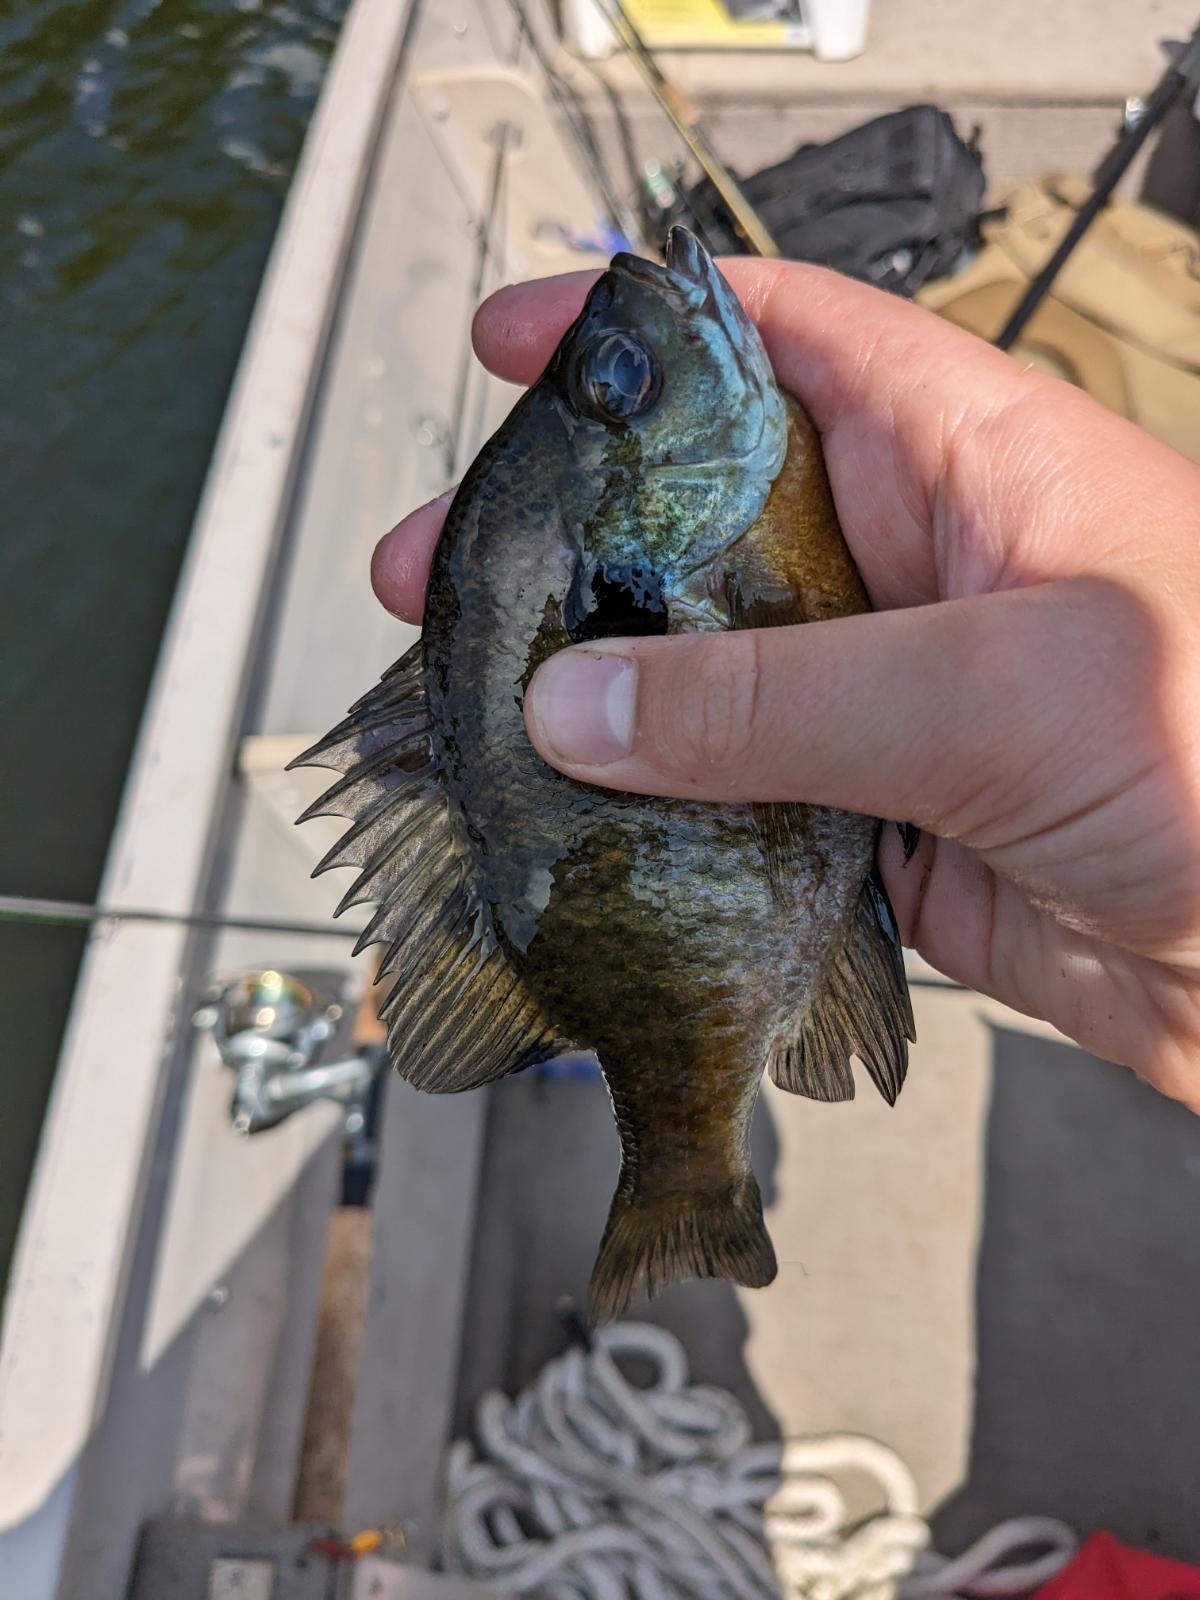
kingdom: Animalia
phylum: Chordata
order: Perciformes
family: Centrarchidae
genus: Lepomis
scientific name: Lepomis macrochirus
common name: Bluegill
